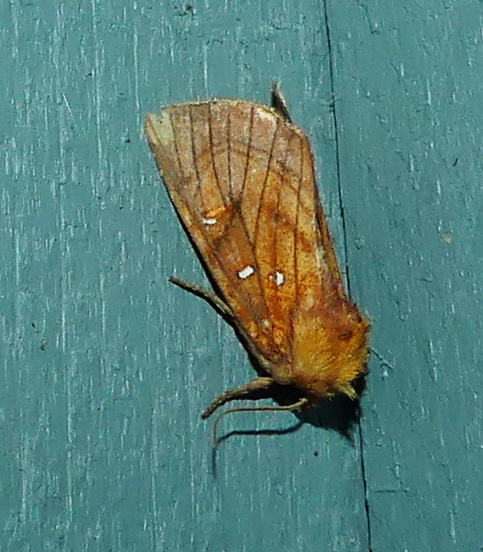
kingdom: Animalia
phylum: Arthropoda
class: Insecta
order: Lepidoptera
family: Noctuidae
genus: Papaipema
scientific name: Papaipema inquaesita
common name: Sensitive fern borer moth
